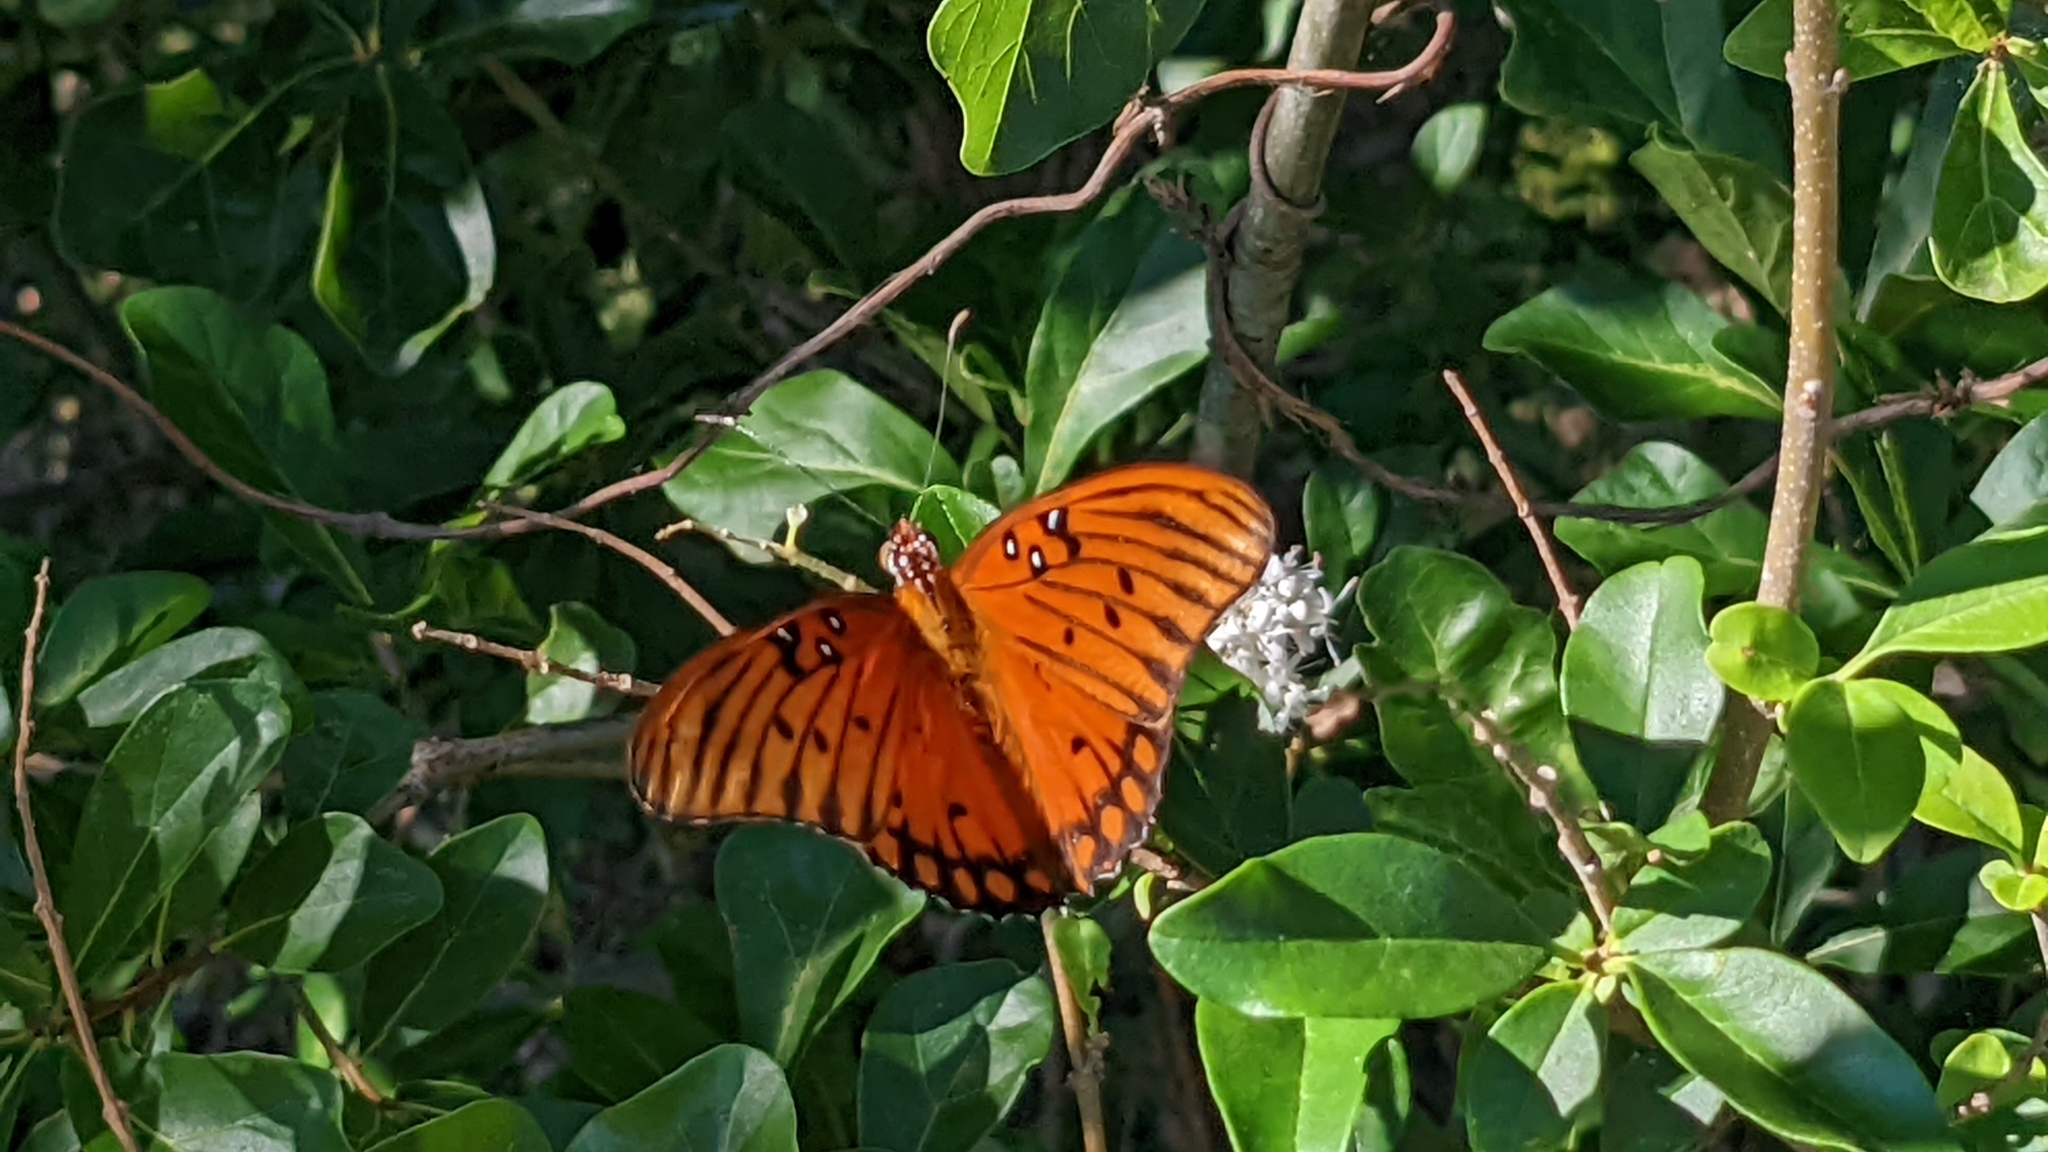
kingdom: Animalia
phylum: Arthropoda
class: Insecta
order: Lepidoptera
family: Nymphalidae
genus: Dione
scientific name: Dione vanillae
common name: Gulf fritillary
